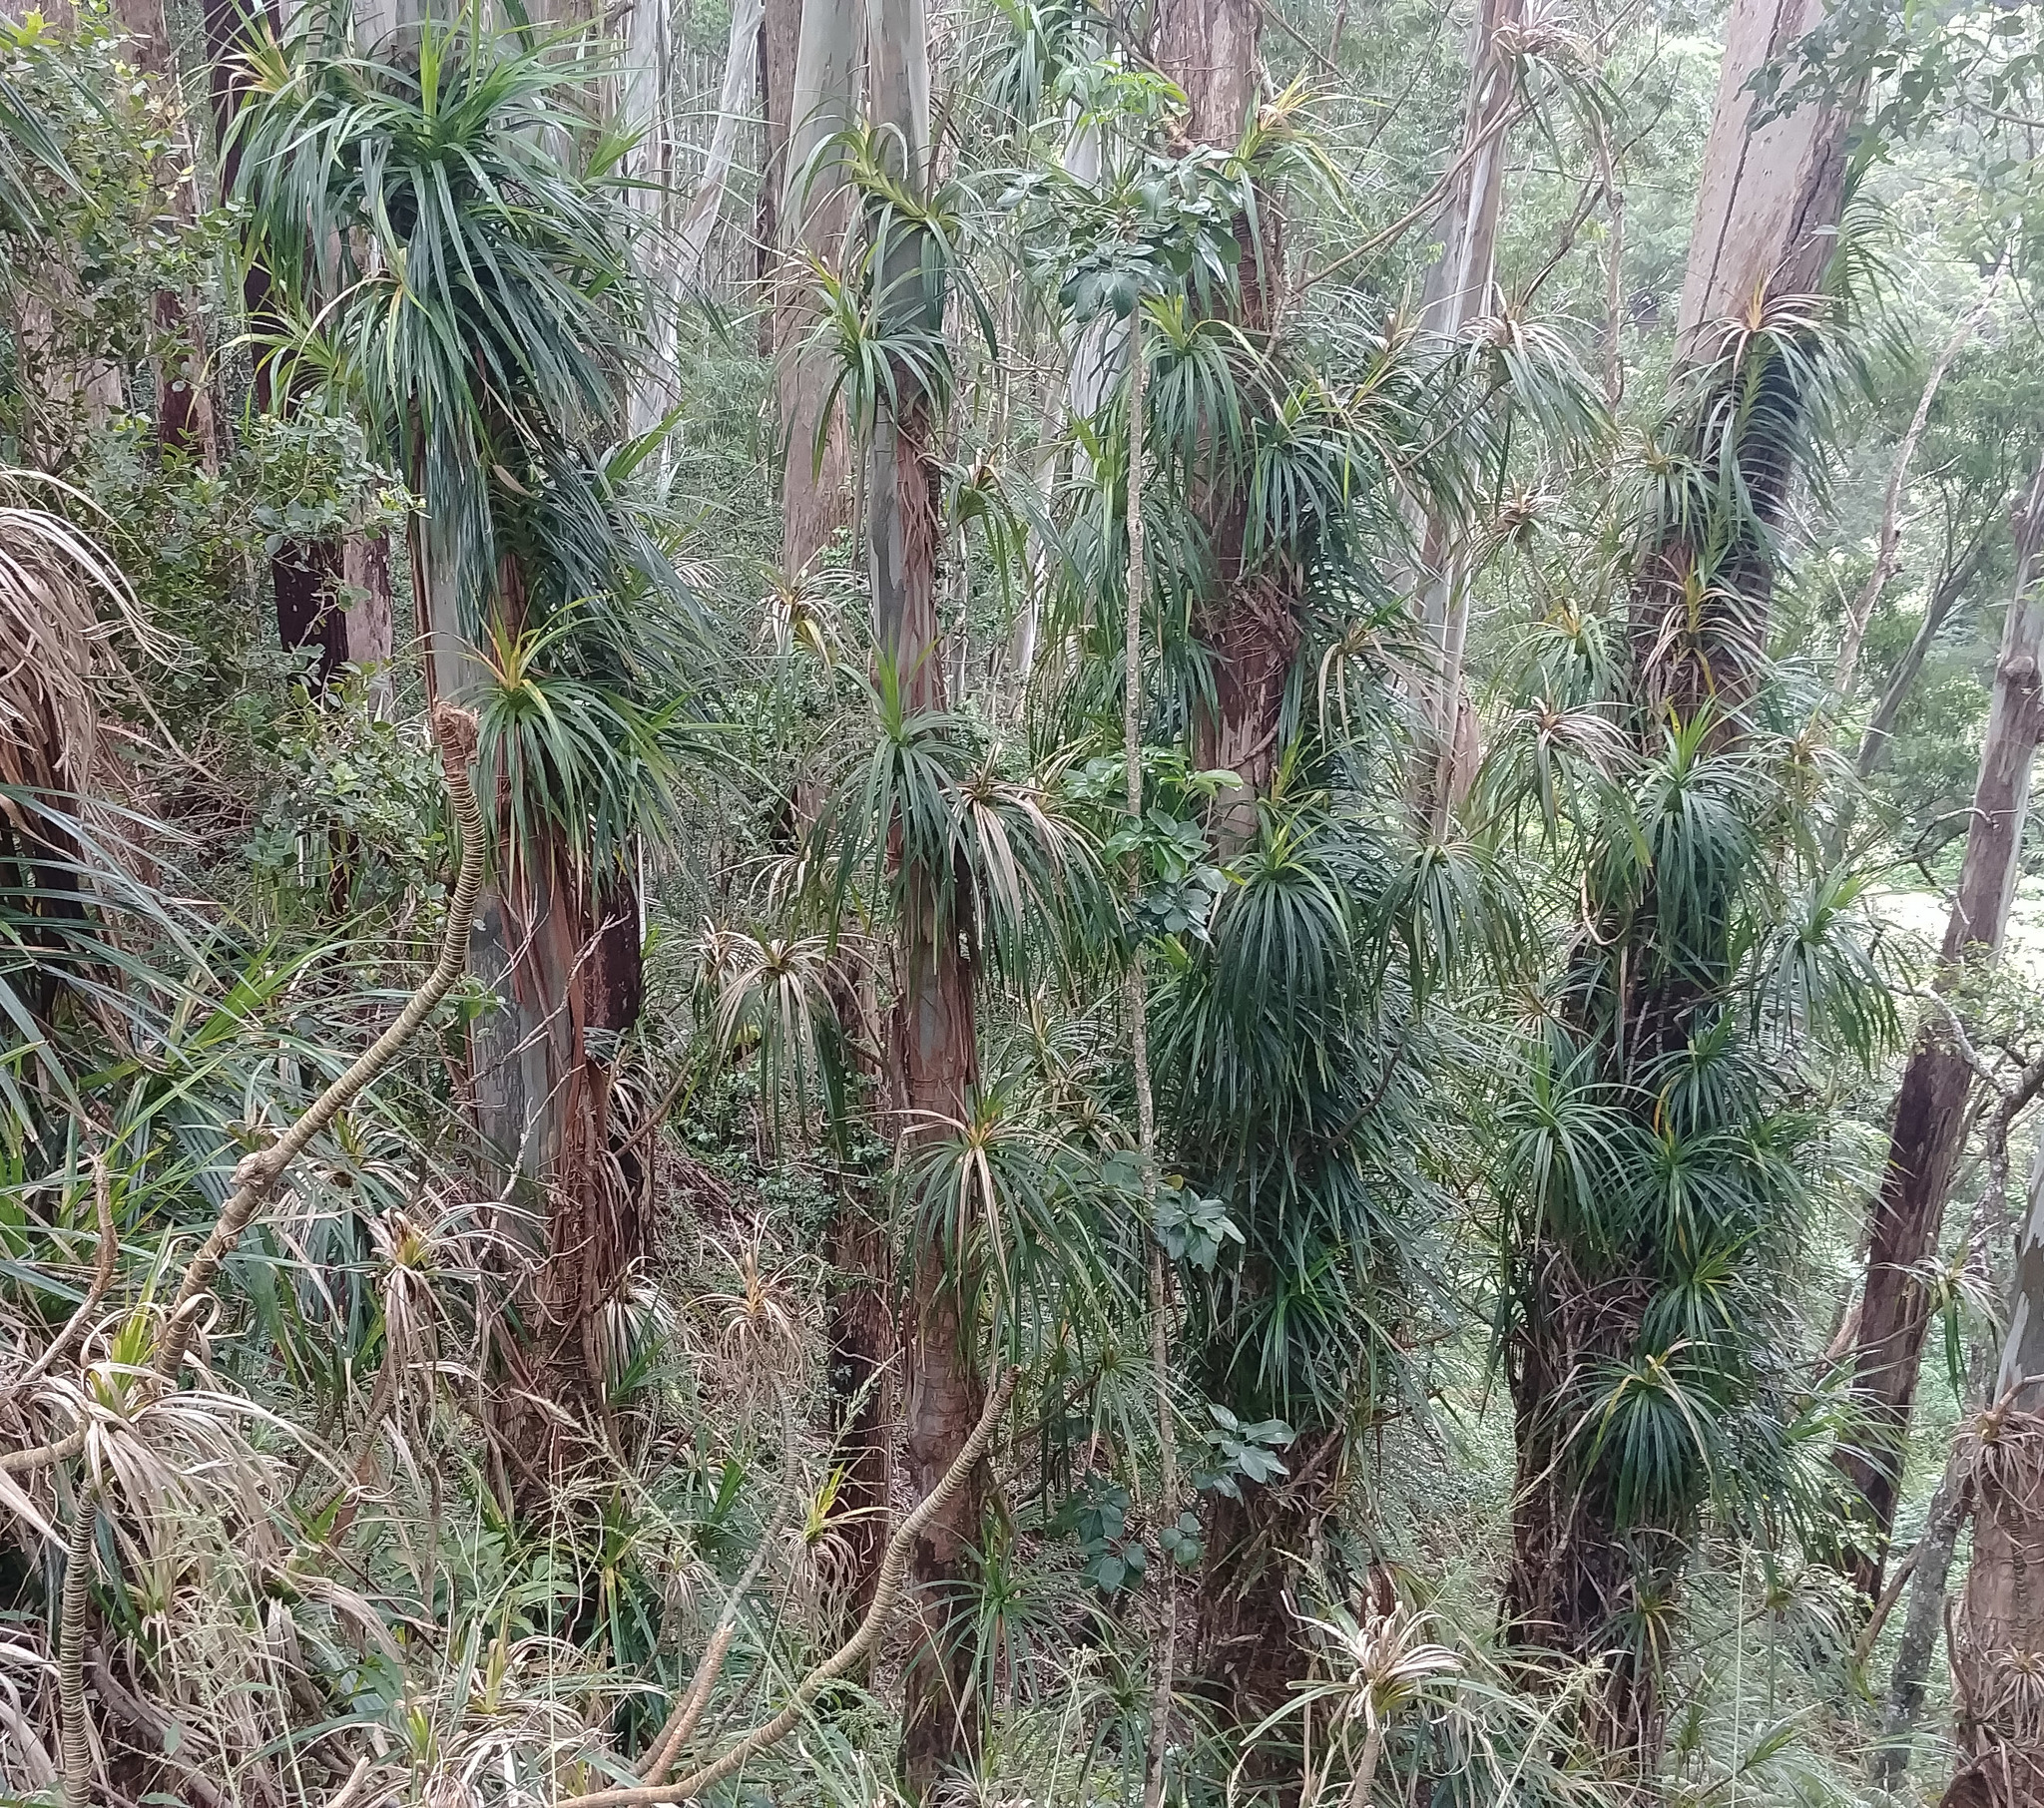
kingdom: Plantae
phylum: Tracheophyta
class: Liliopsida
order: Pandanales
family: Pandanaceae
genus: Freycinetia
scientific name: Freycinetia arborea
